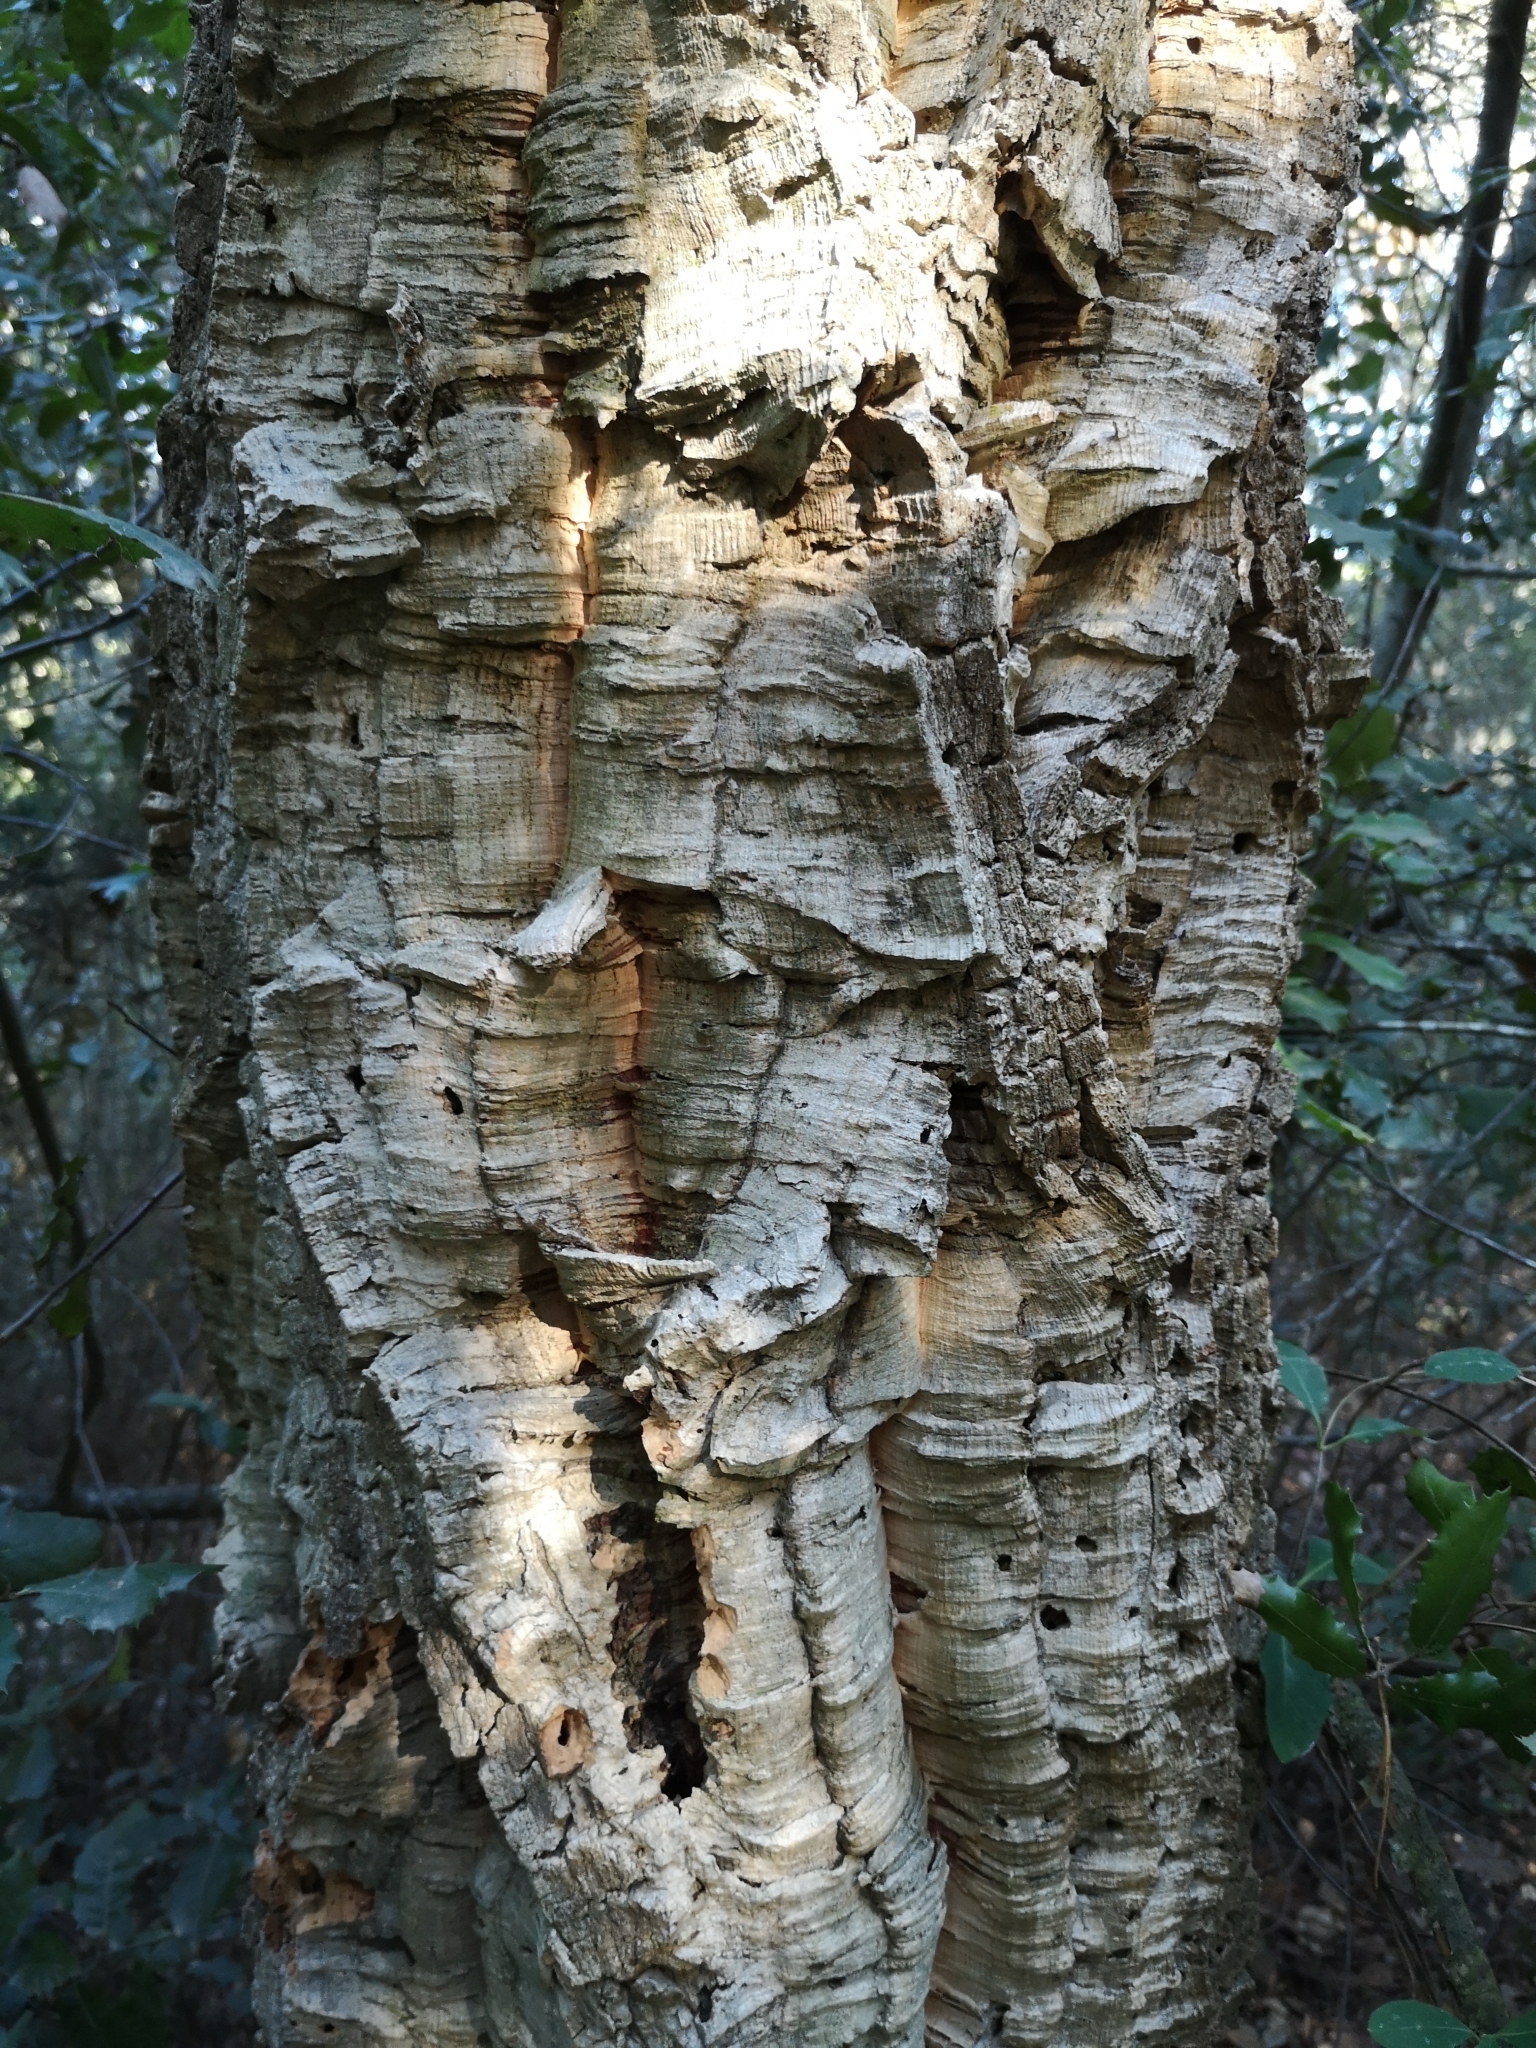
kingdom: Plantae
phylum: Tracheophyta
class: Magnoliopsida
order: Fagales
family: Fagaceae
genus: Quercus
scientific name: Quercus suber
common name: Cork oak
